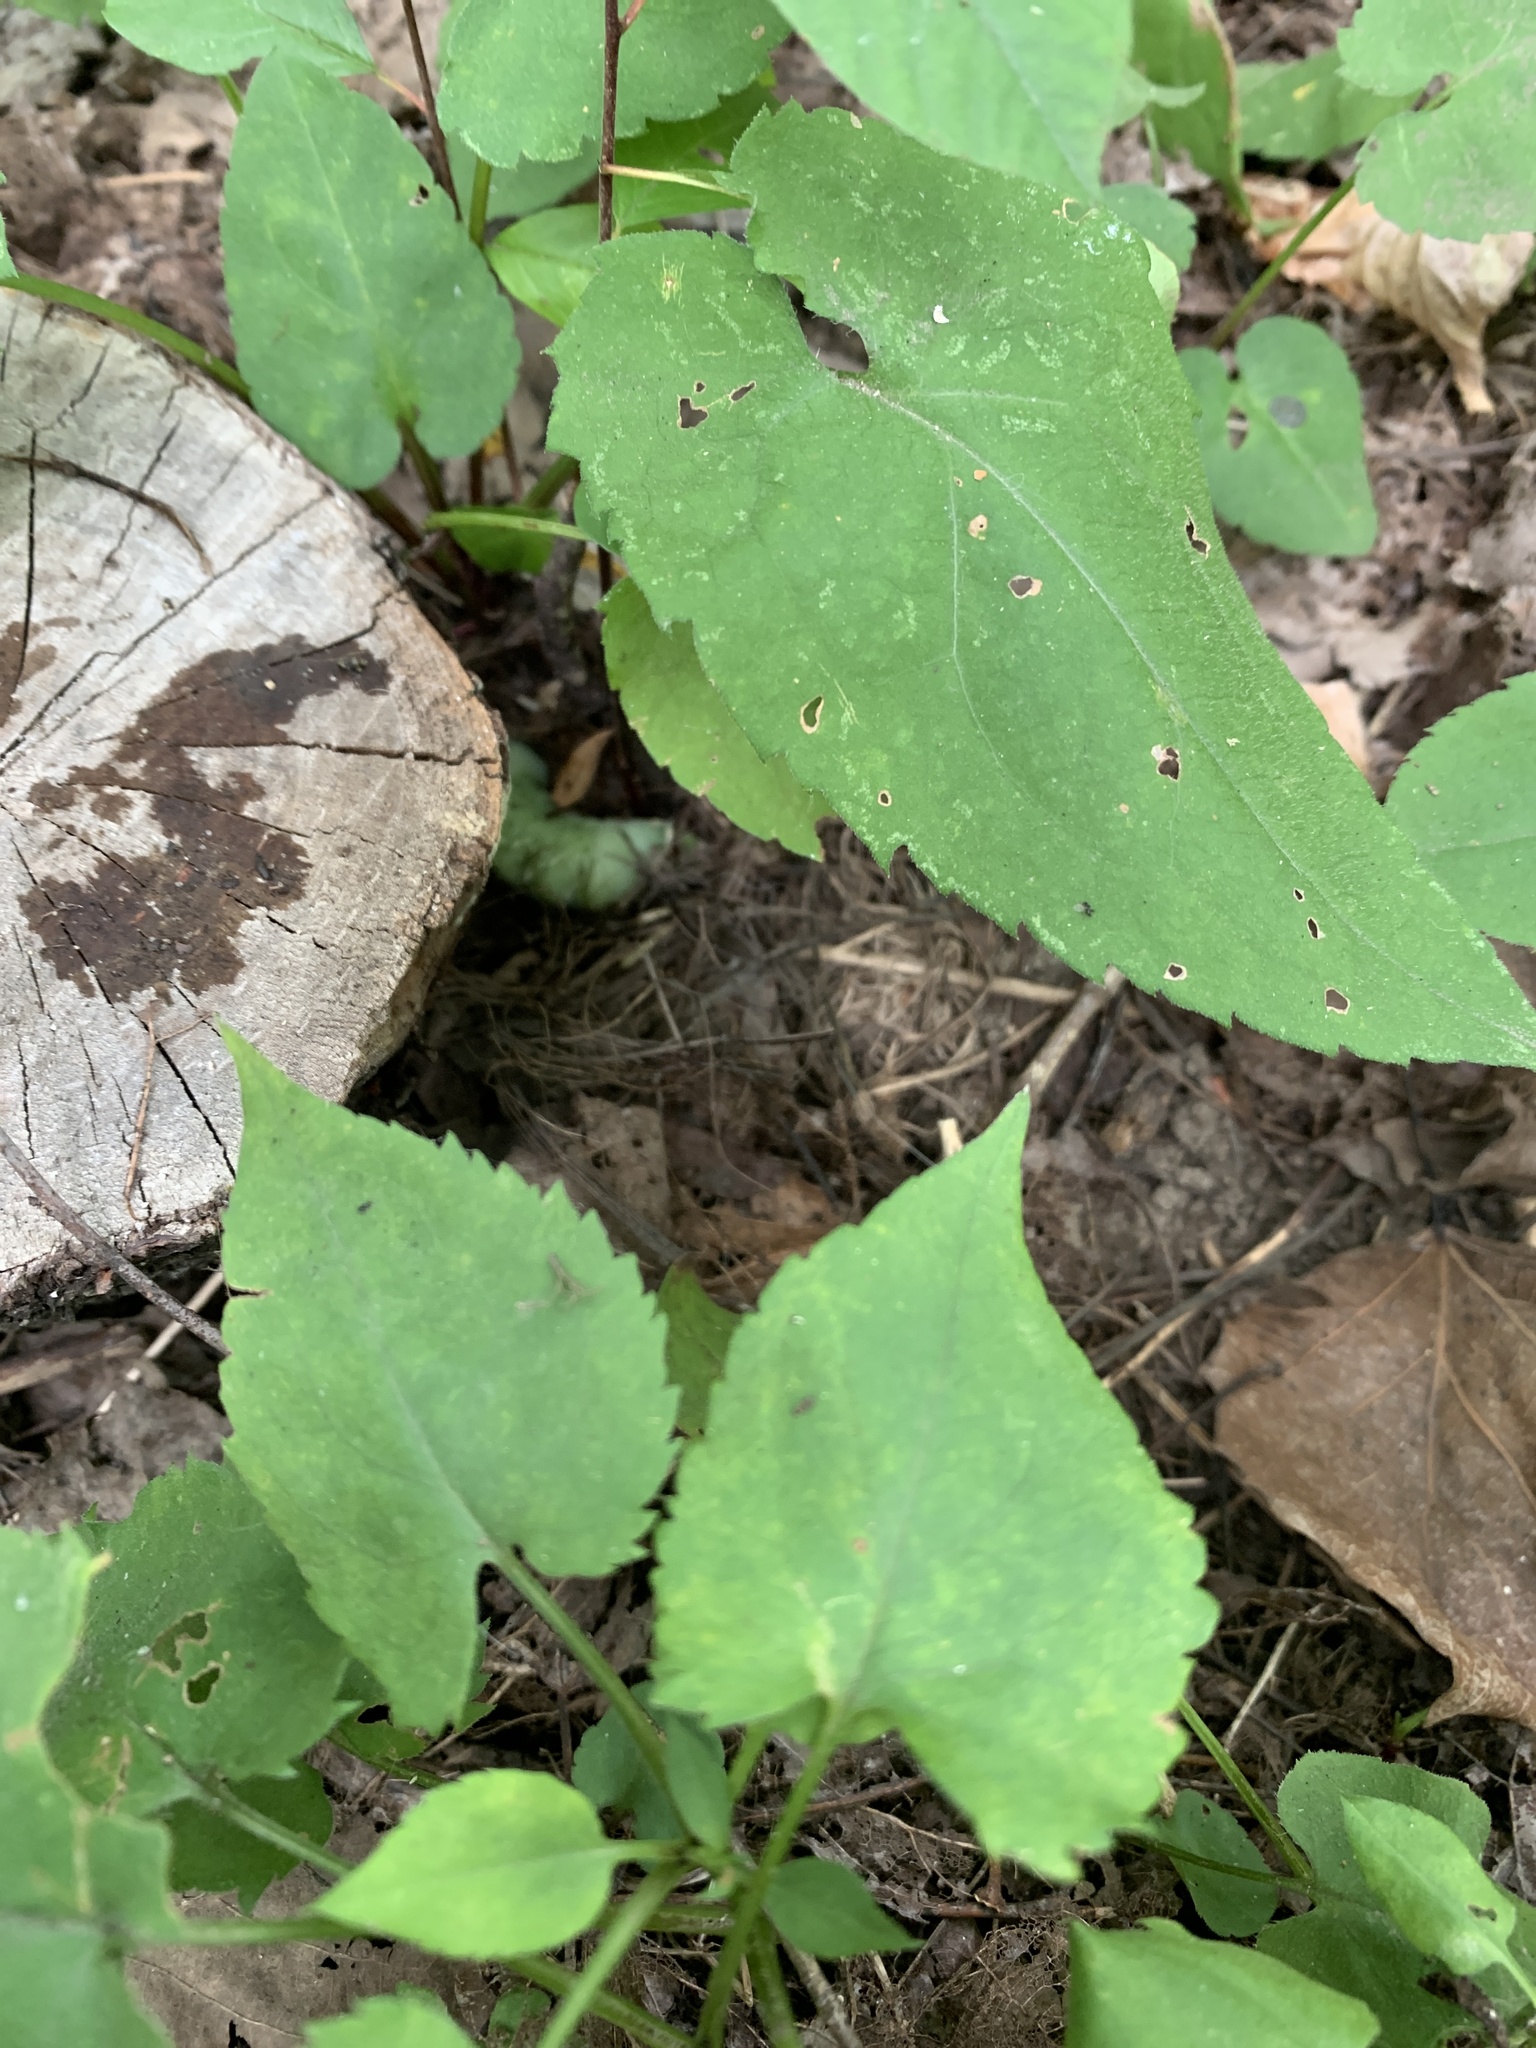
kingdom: Animalia
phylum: Arthropoda
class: Insecta
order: Lepidoptera
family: Sphingidae
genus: Pachysphinx
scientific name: Pachysphinx modesta
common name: Big poplar sphinx
